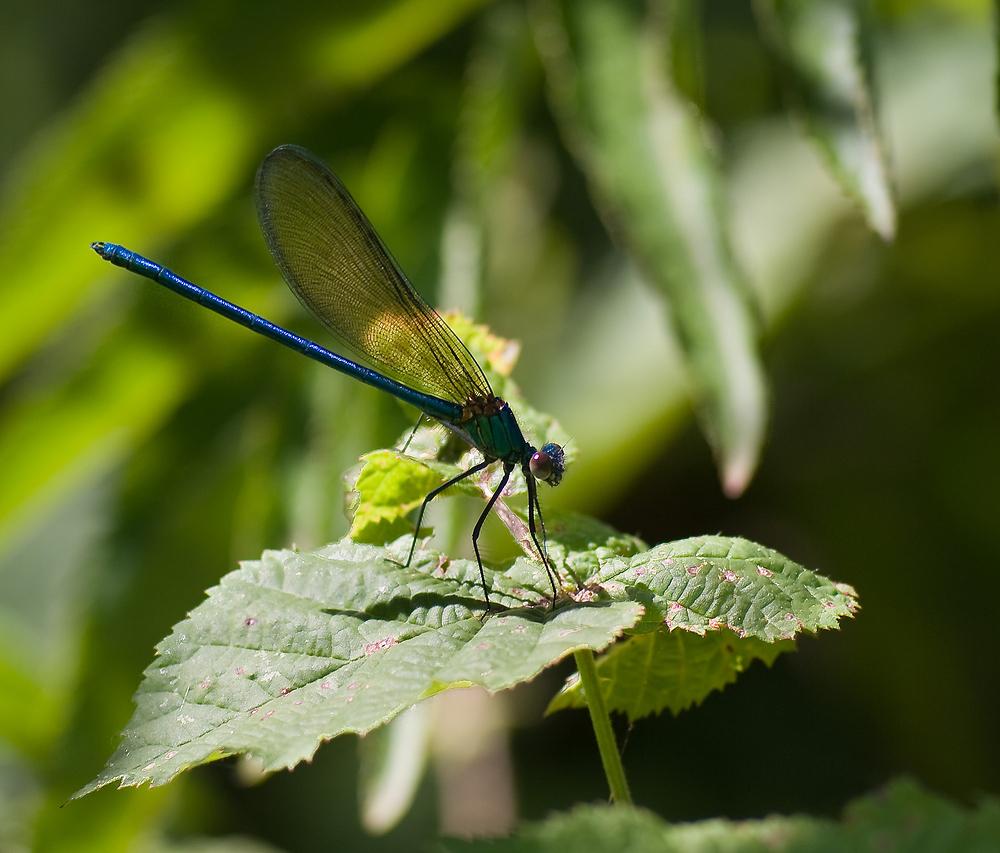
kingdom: Animalia
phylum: Arthropoda
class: Insecta
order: Odonata
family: Calopterygidae
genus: Calopteryx
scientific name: Calopteryx xanthostoma
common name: Western demoiselle
